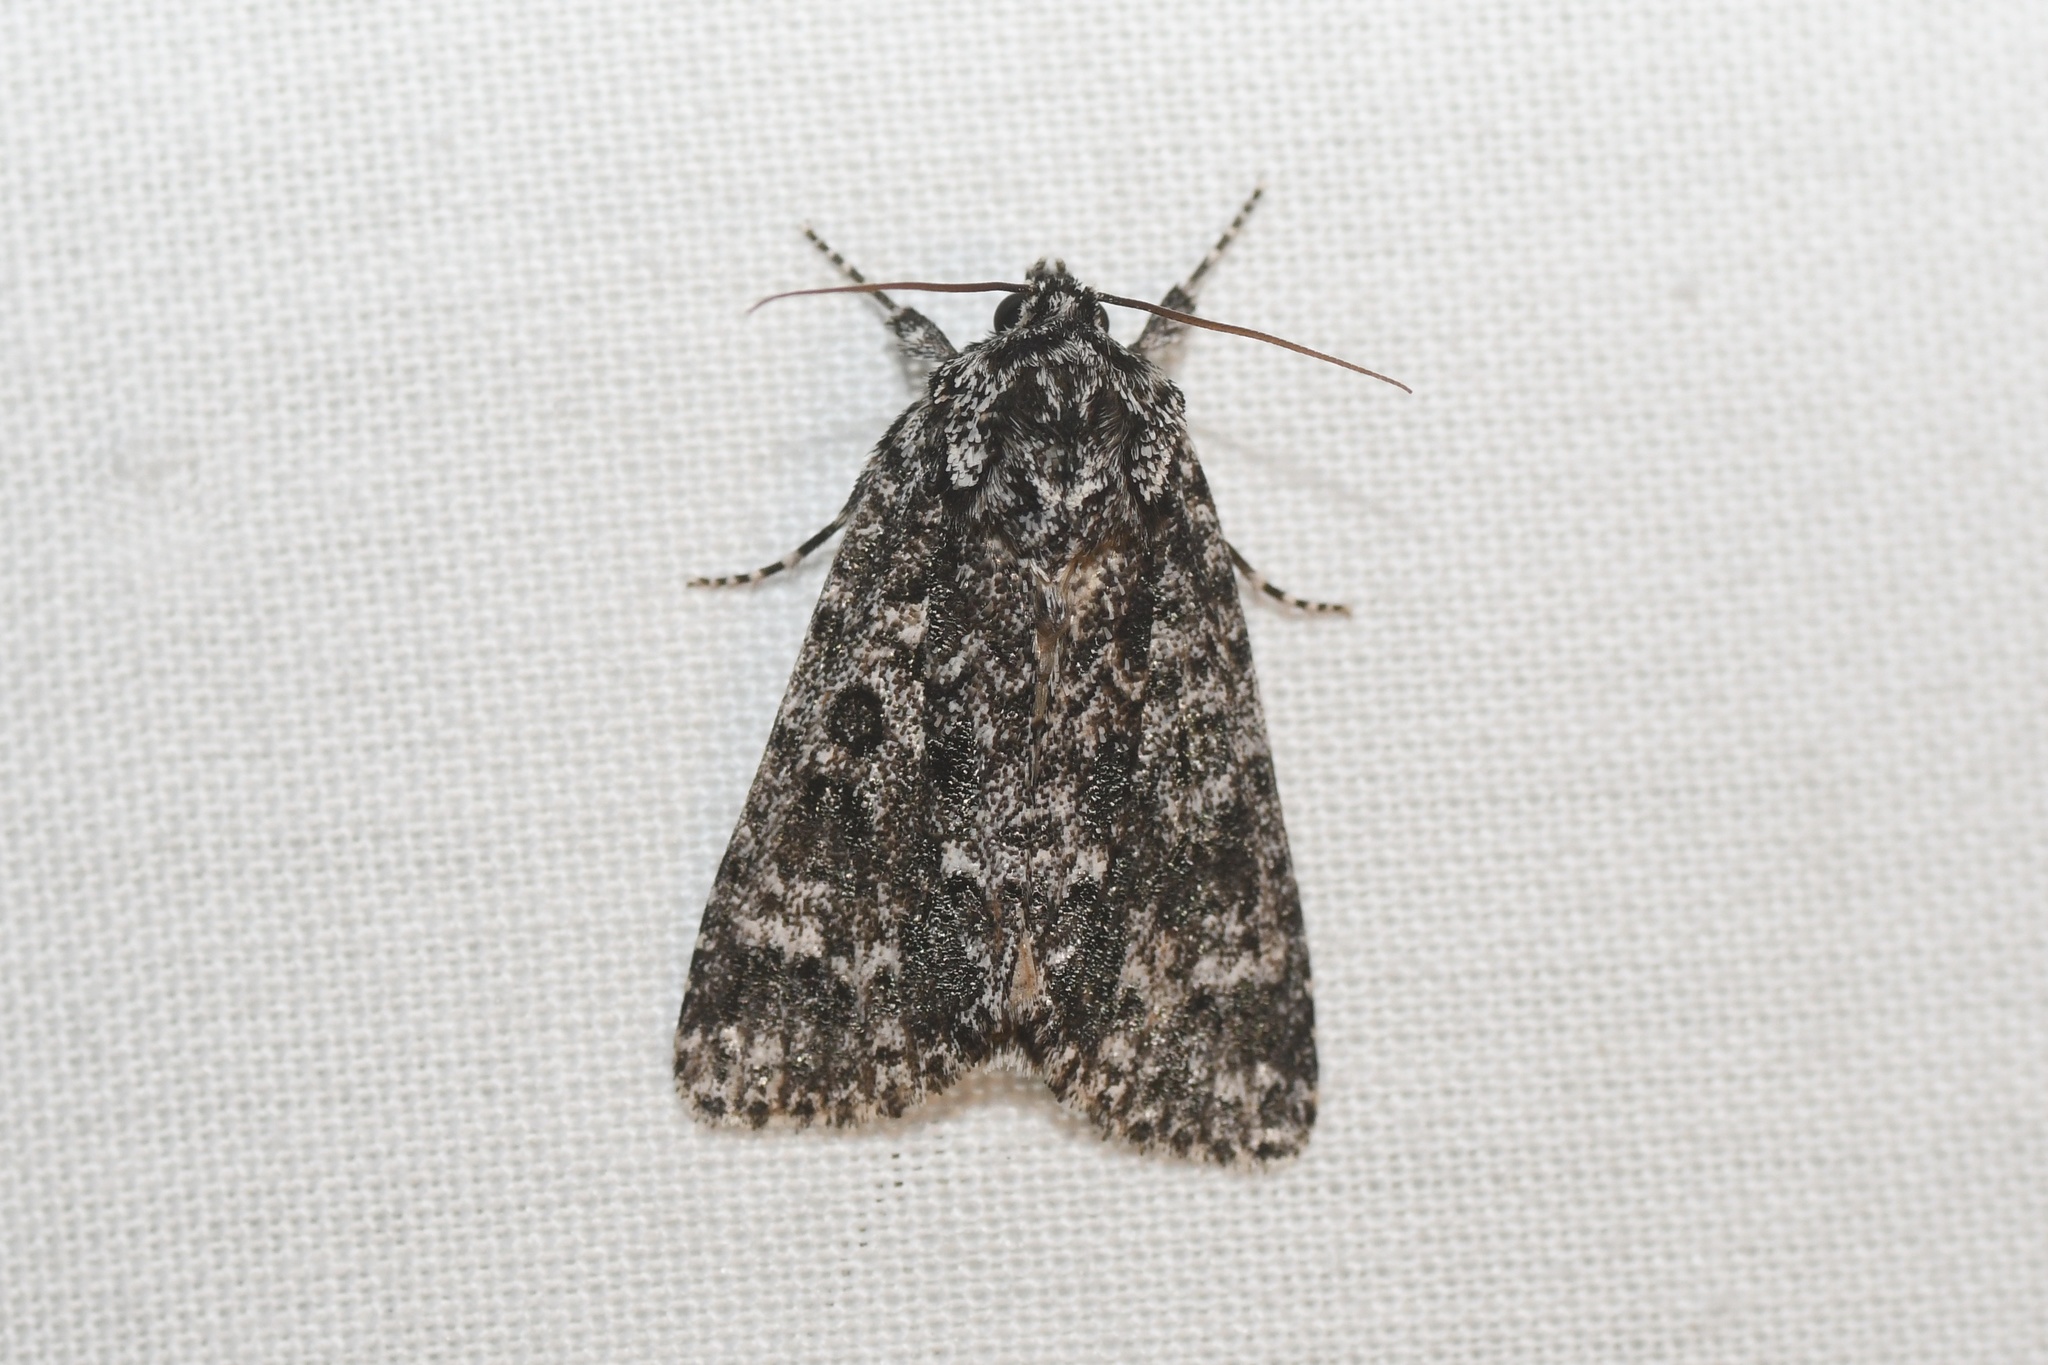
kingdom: Animalia
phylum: Arthropoda
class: Insecta
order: Lepidoptera
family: Noctuidae
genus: Acronicta
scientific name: Acronicta noctivaga
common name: Night-wandering dagger
